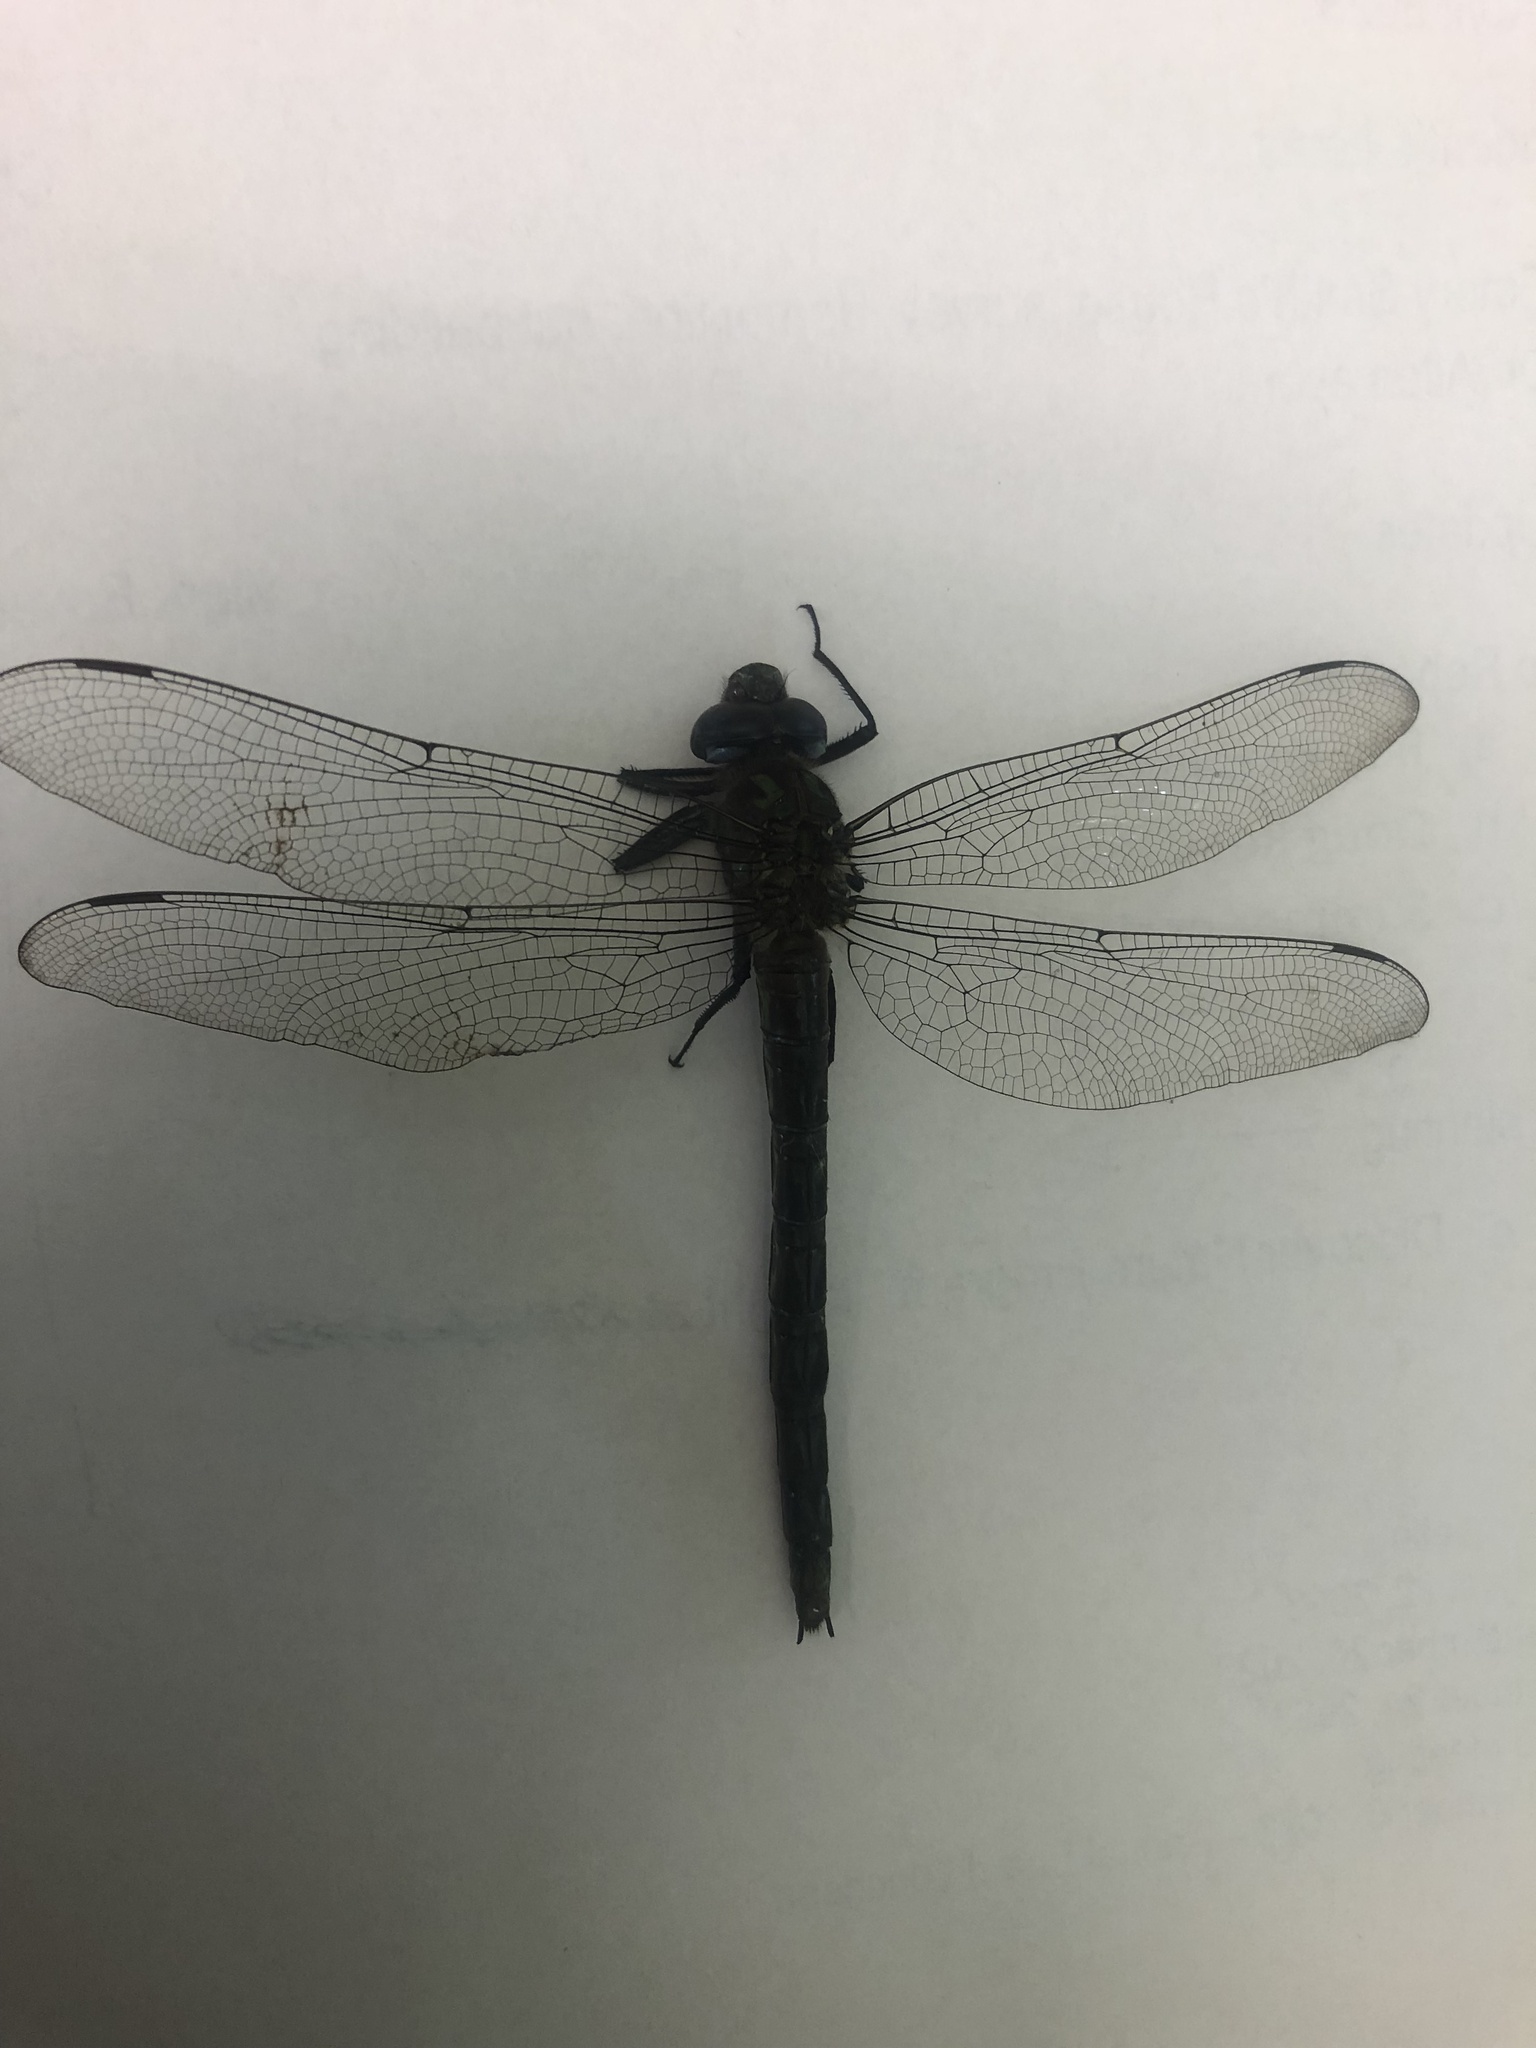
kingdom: Animalia
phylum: Arthropoda
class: Insecta
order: Odonata
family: Aeshnidae
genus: Nasiaeschna
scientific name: Nasiaeschna pentacantha
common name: Cyrano darner
